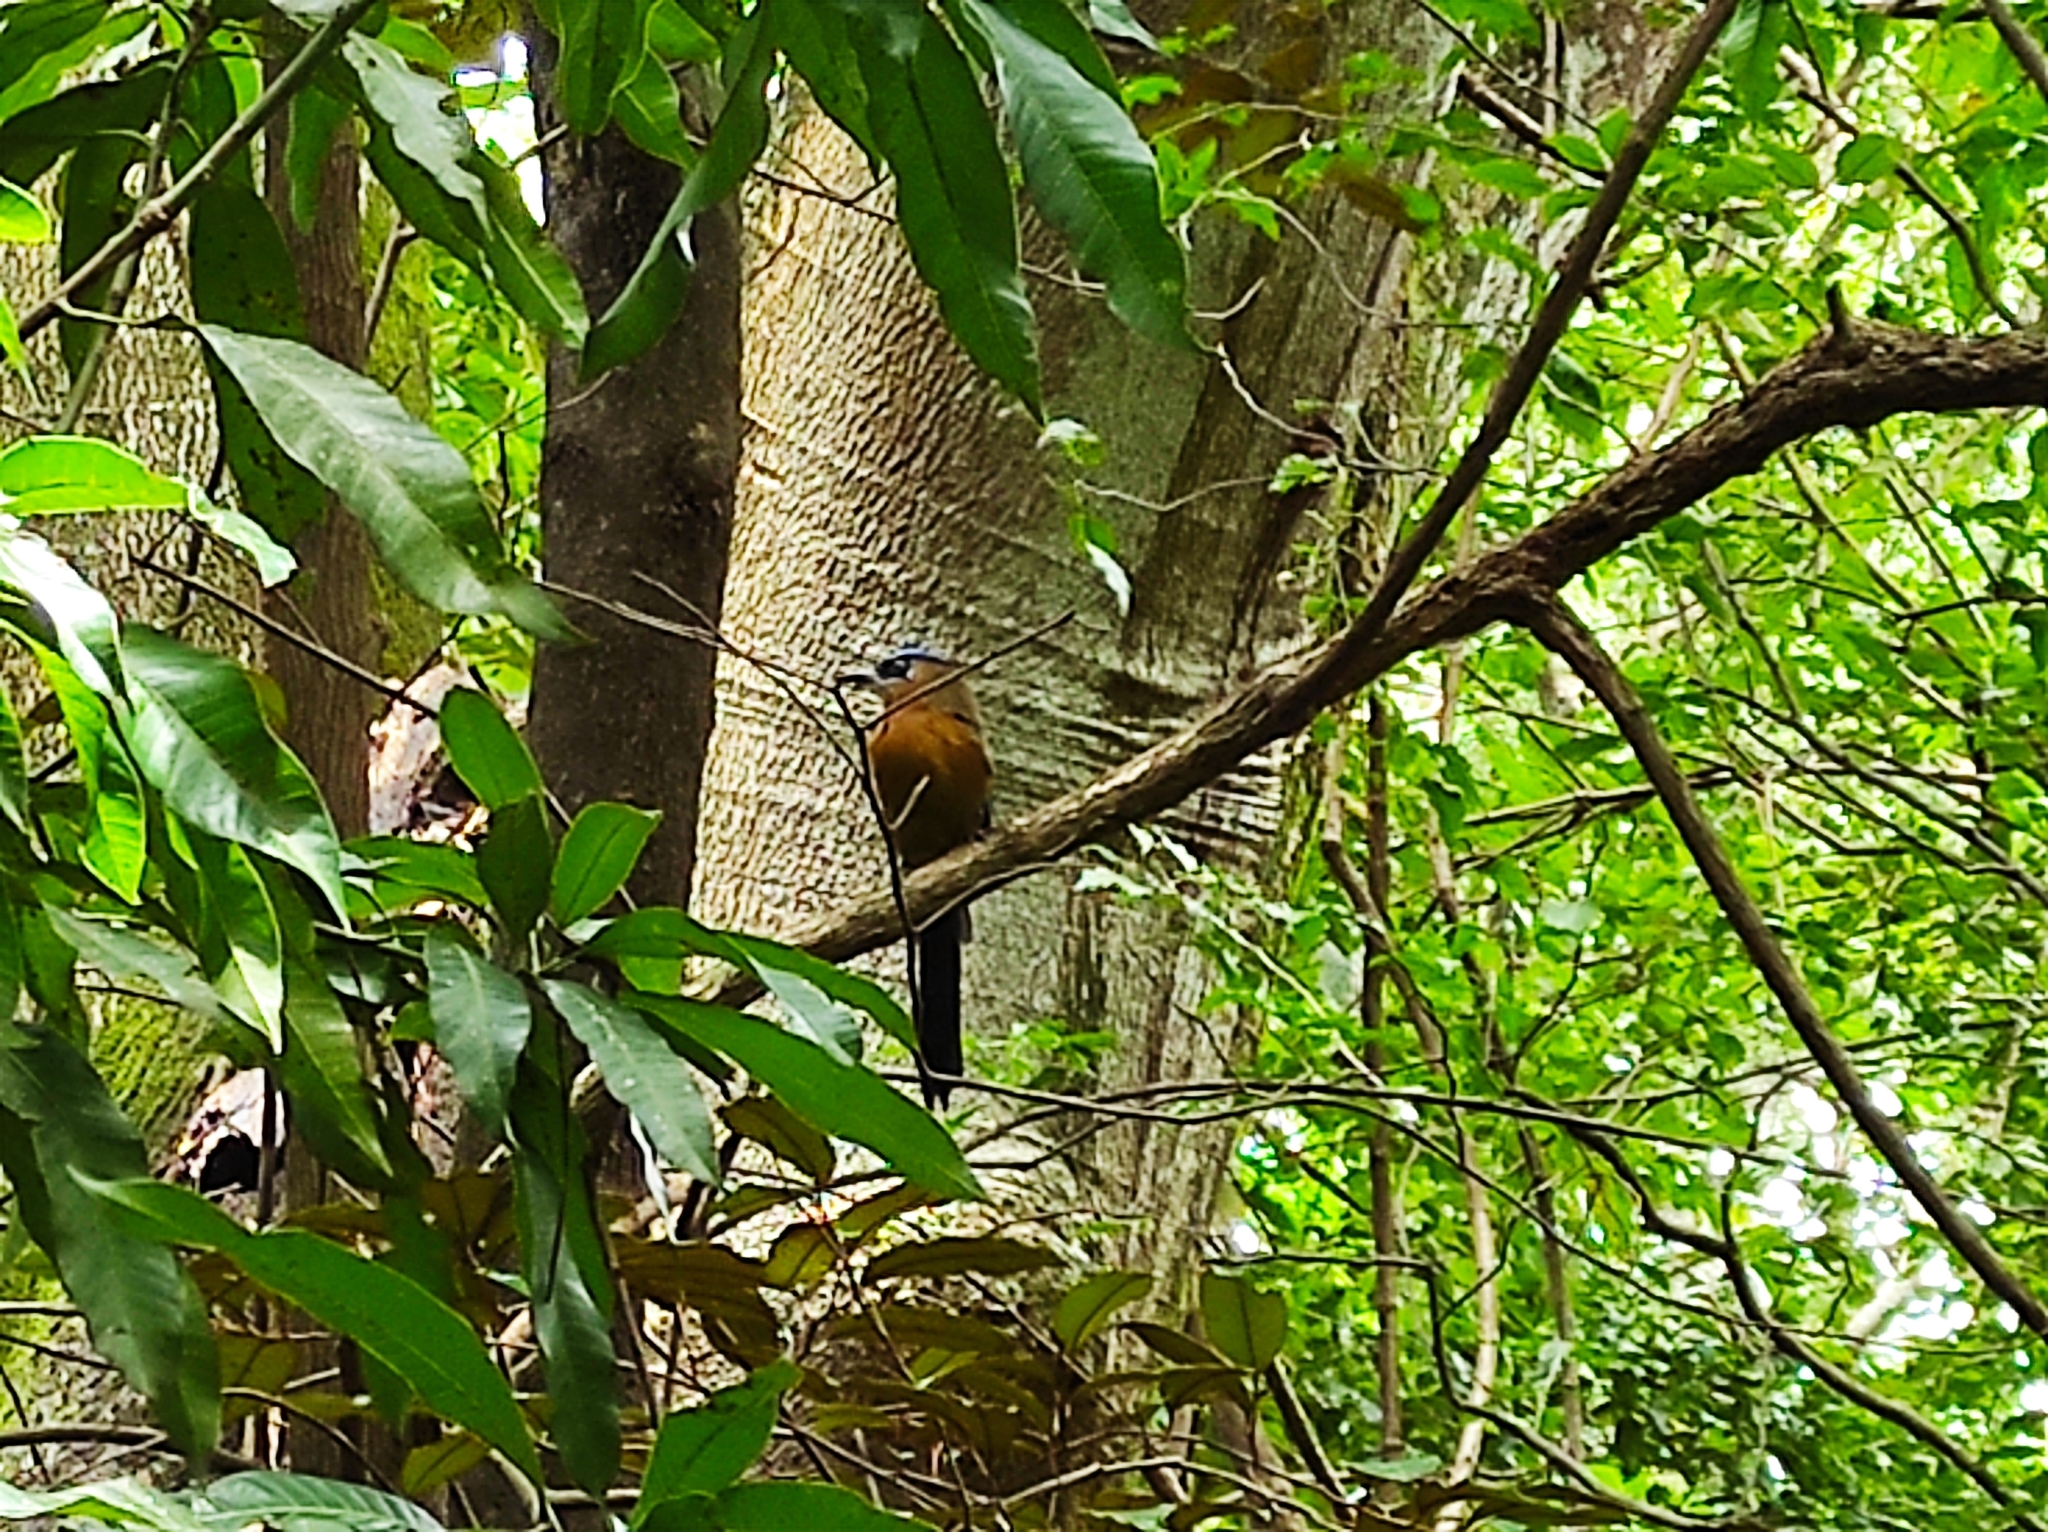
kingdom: Animalia
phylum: Chordata
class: Aves
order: Coraciiformes
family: Momotidae
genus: Momotus
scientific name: Momotus lessonii
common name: Lesson's motmot
